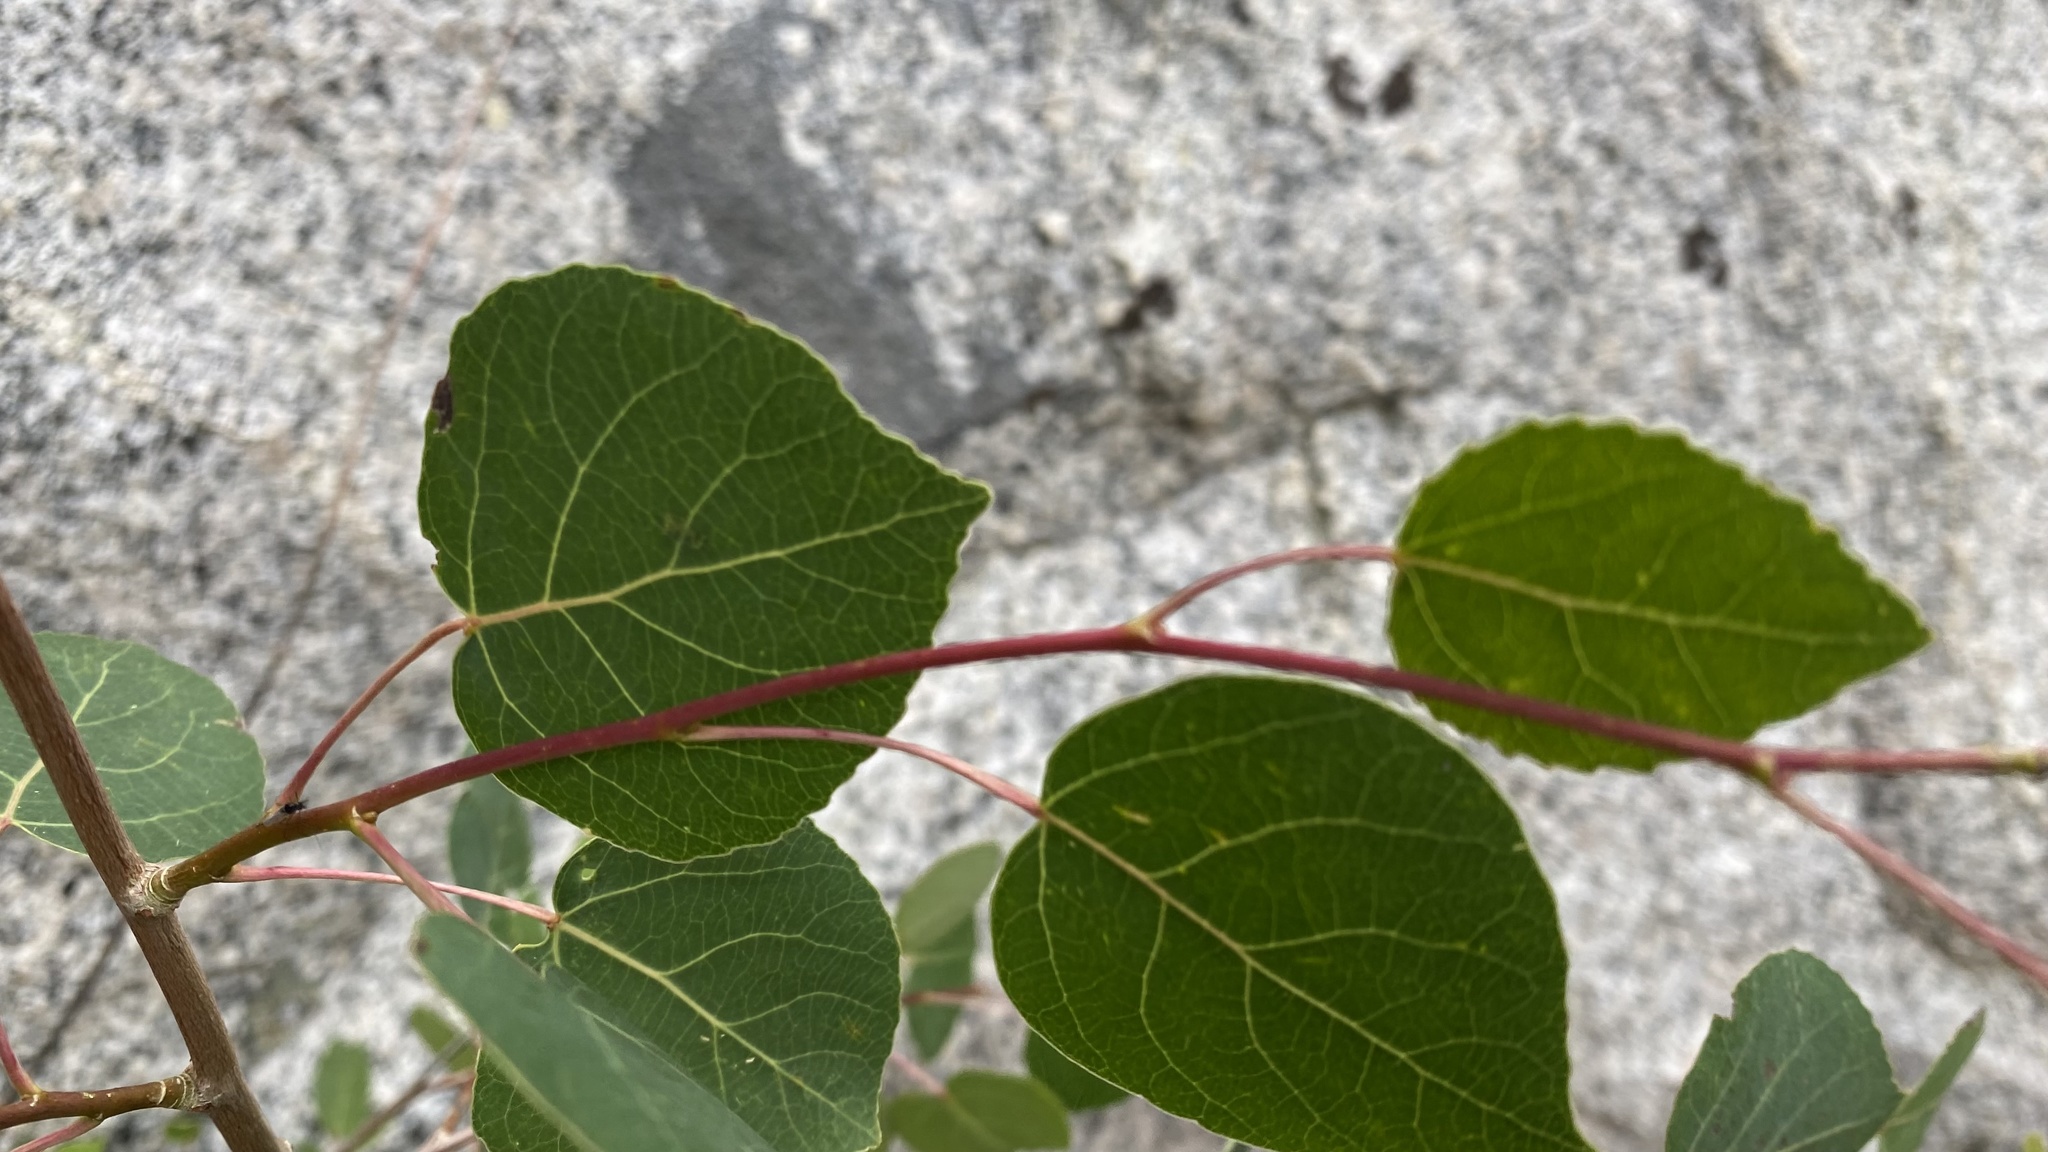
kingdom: Plantae
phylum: Tracheophyta
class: Magnoliopsida
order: Malpighiales
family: Salicaceae
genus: Populus
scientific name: Populus tremuloides
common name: Quaking aspen
